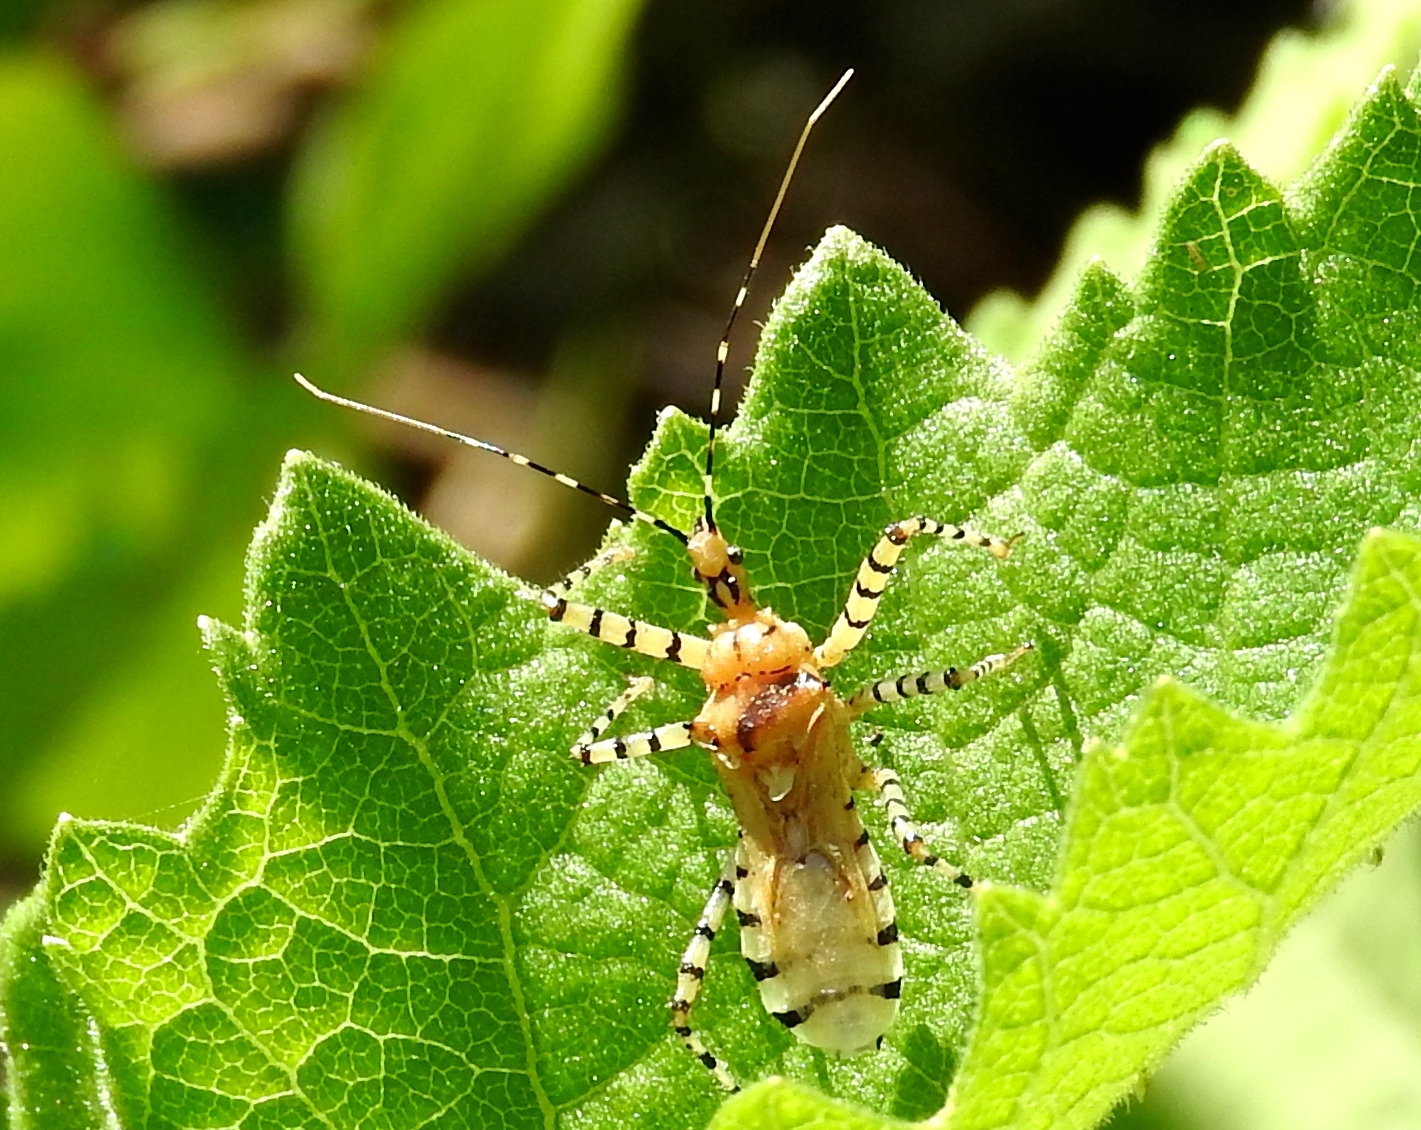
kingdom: Animalia
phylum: Arthropoda
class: Insecta
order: Hemiptera
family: Reduviidae
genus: Pselliopus
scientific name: Pselliopus
